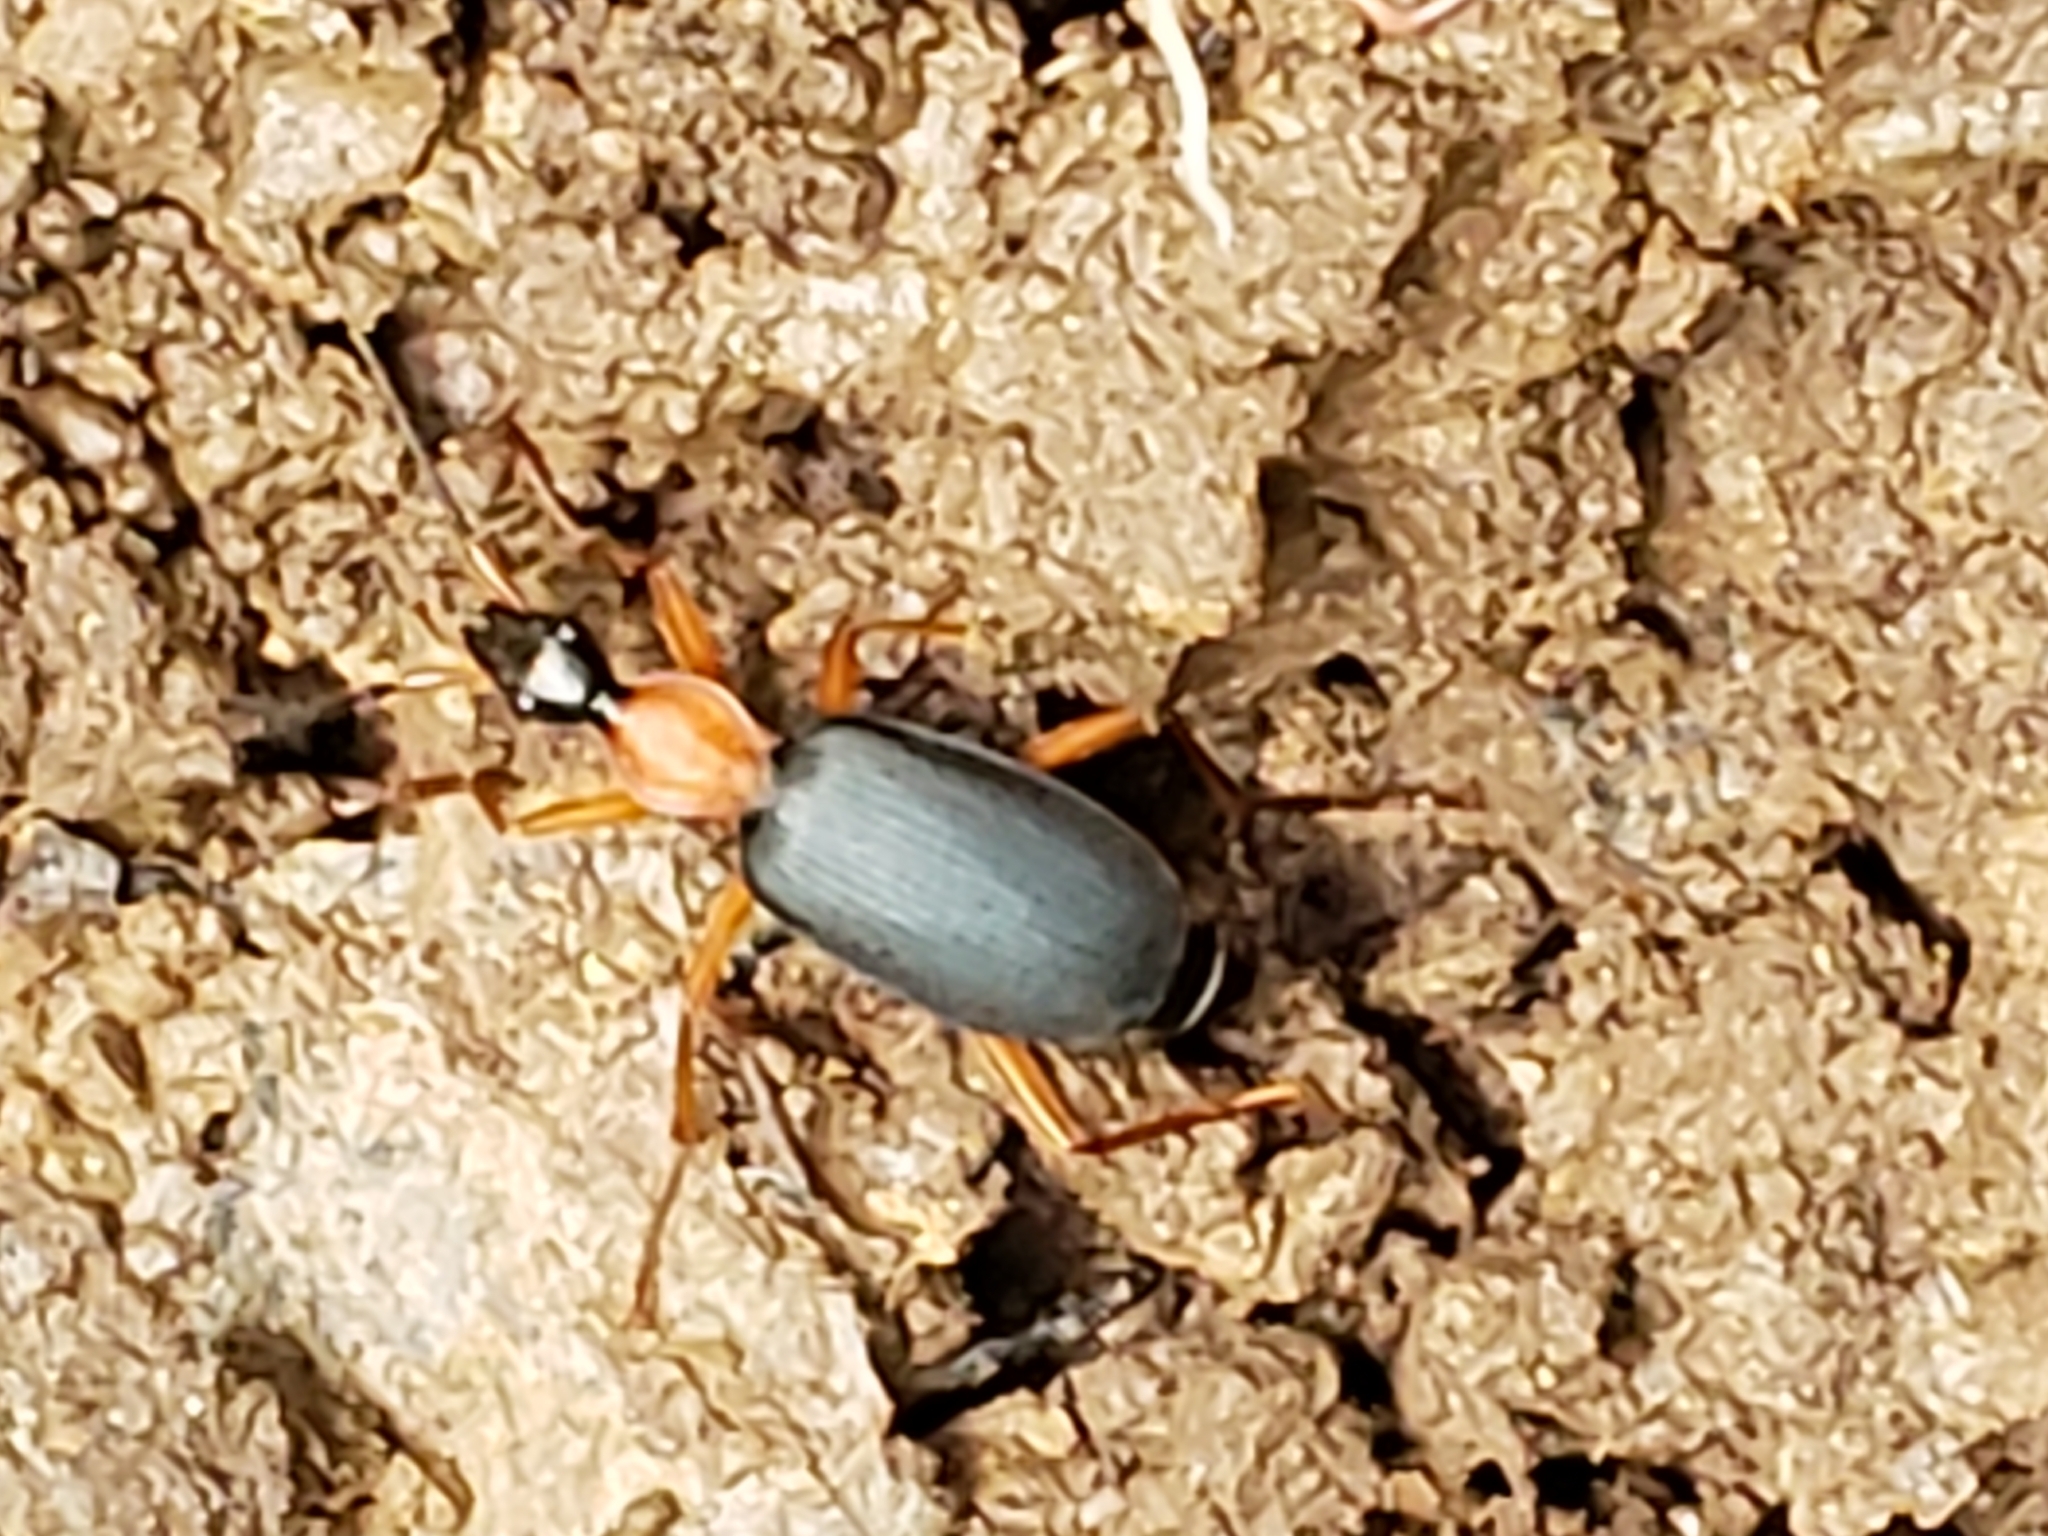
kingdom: Animalia
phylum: Arthropoda
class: Insecta
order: Coleoptera
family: Carabidae
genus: Galerita
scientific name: Galerita bicolor
